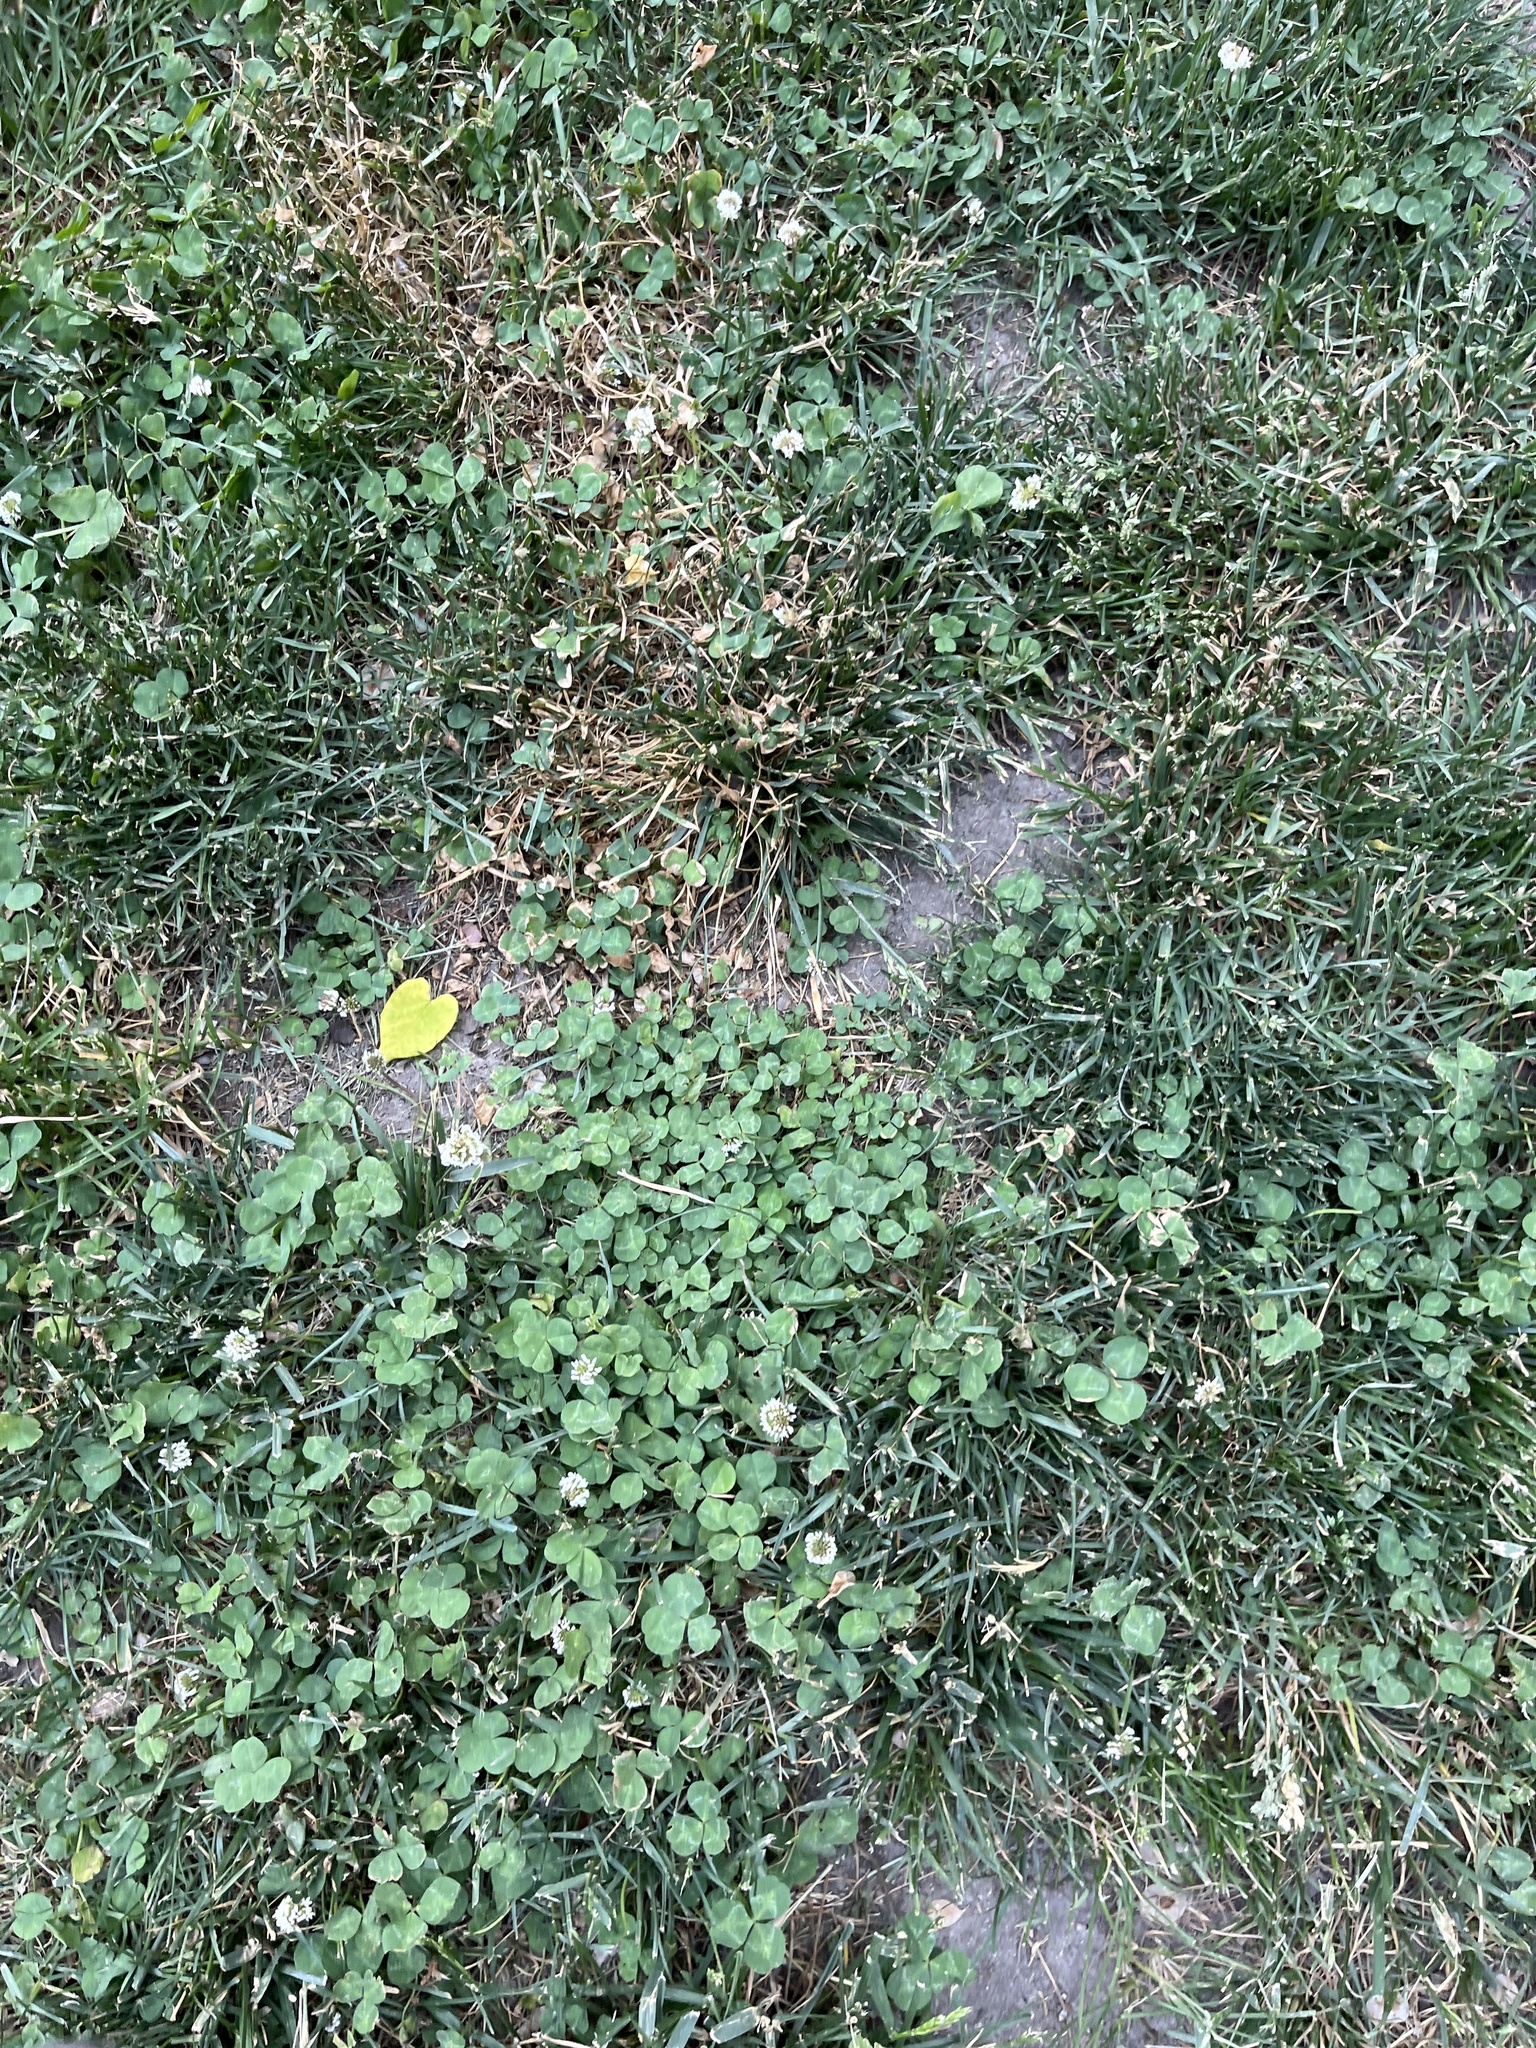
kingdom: Plantae
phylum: Tracheophyta
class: Magnoliopsida
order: Fabales
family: Fabaceae
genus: Trifolium
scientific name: Trifolium repens
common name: White clover
